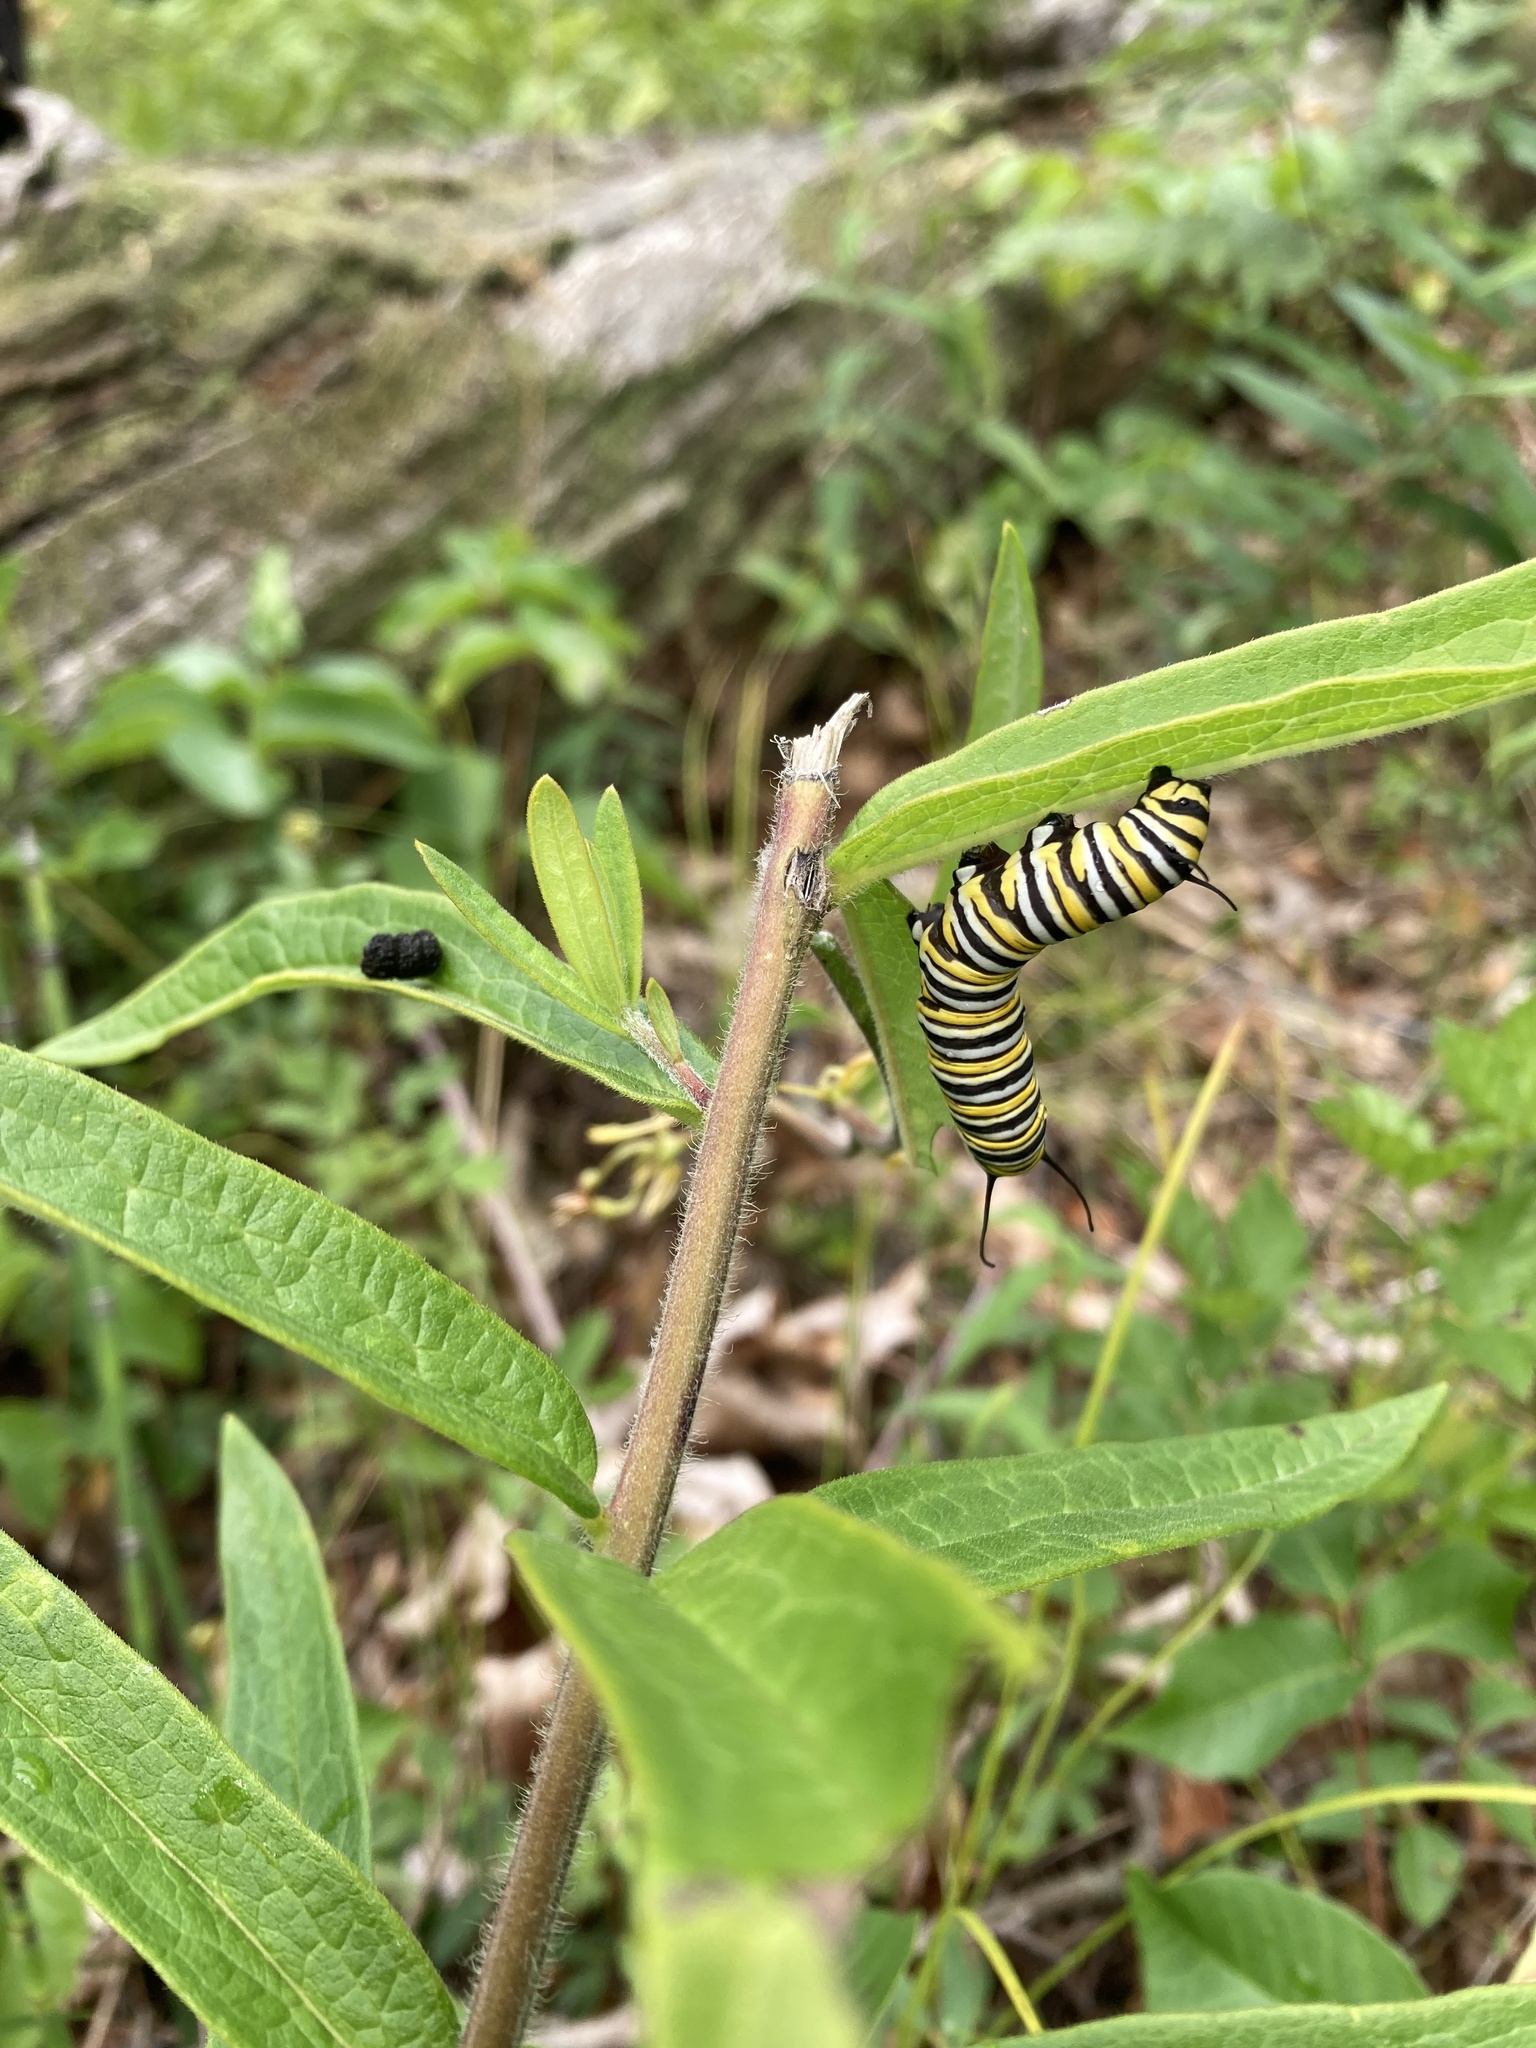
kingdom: Animalia
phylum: Arthropoda
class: Insecta
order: Lepidoptera
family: Nymphalidae
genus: Danaus
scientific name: Danaus plexippus
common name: Monarch
